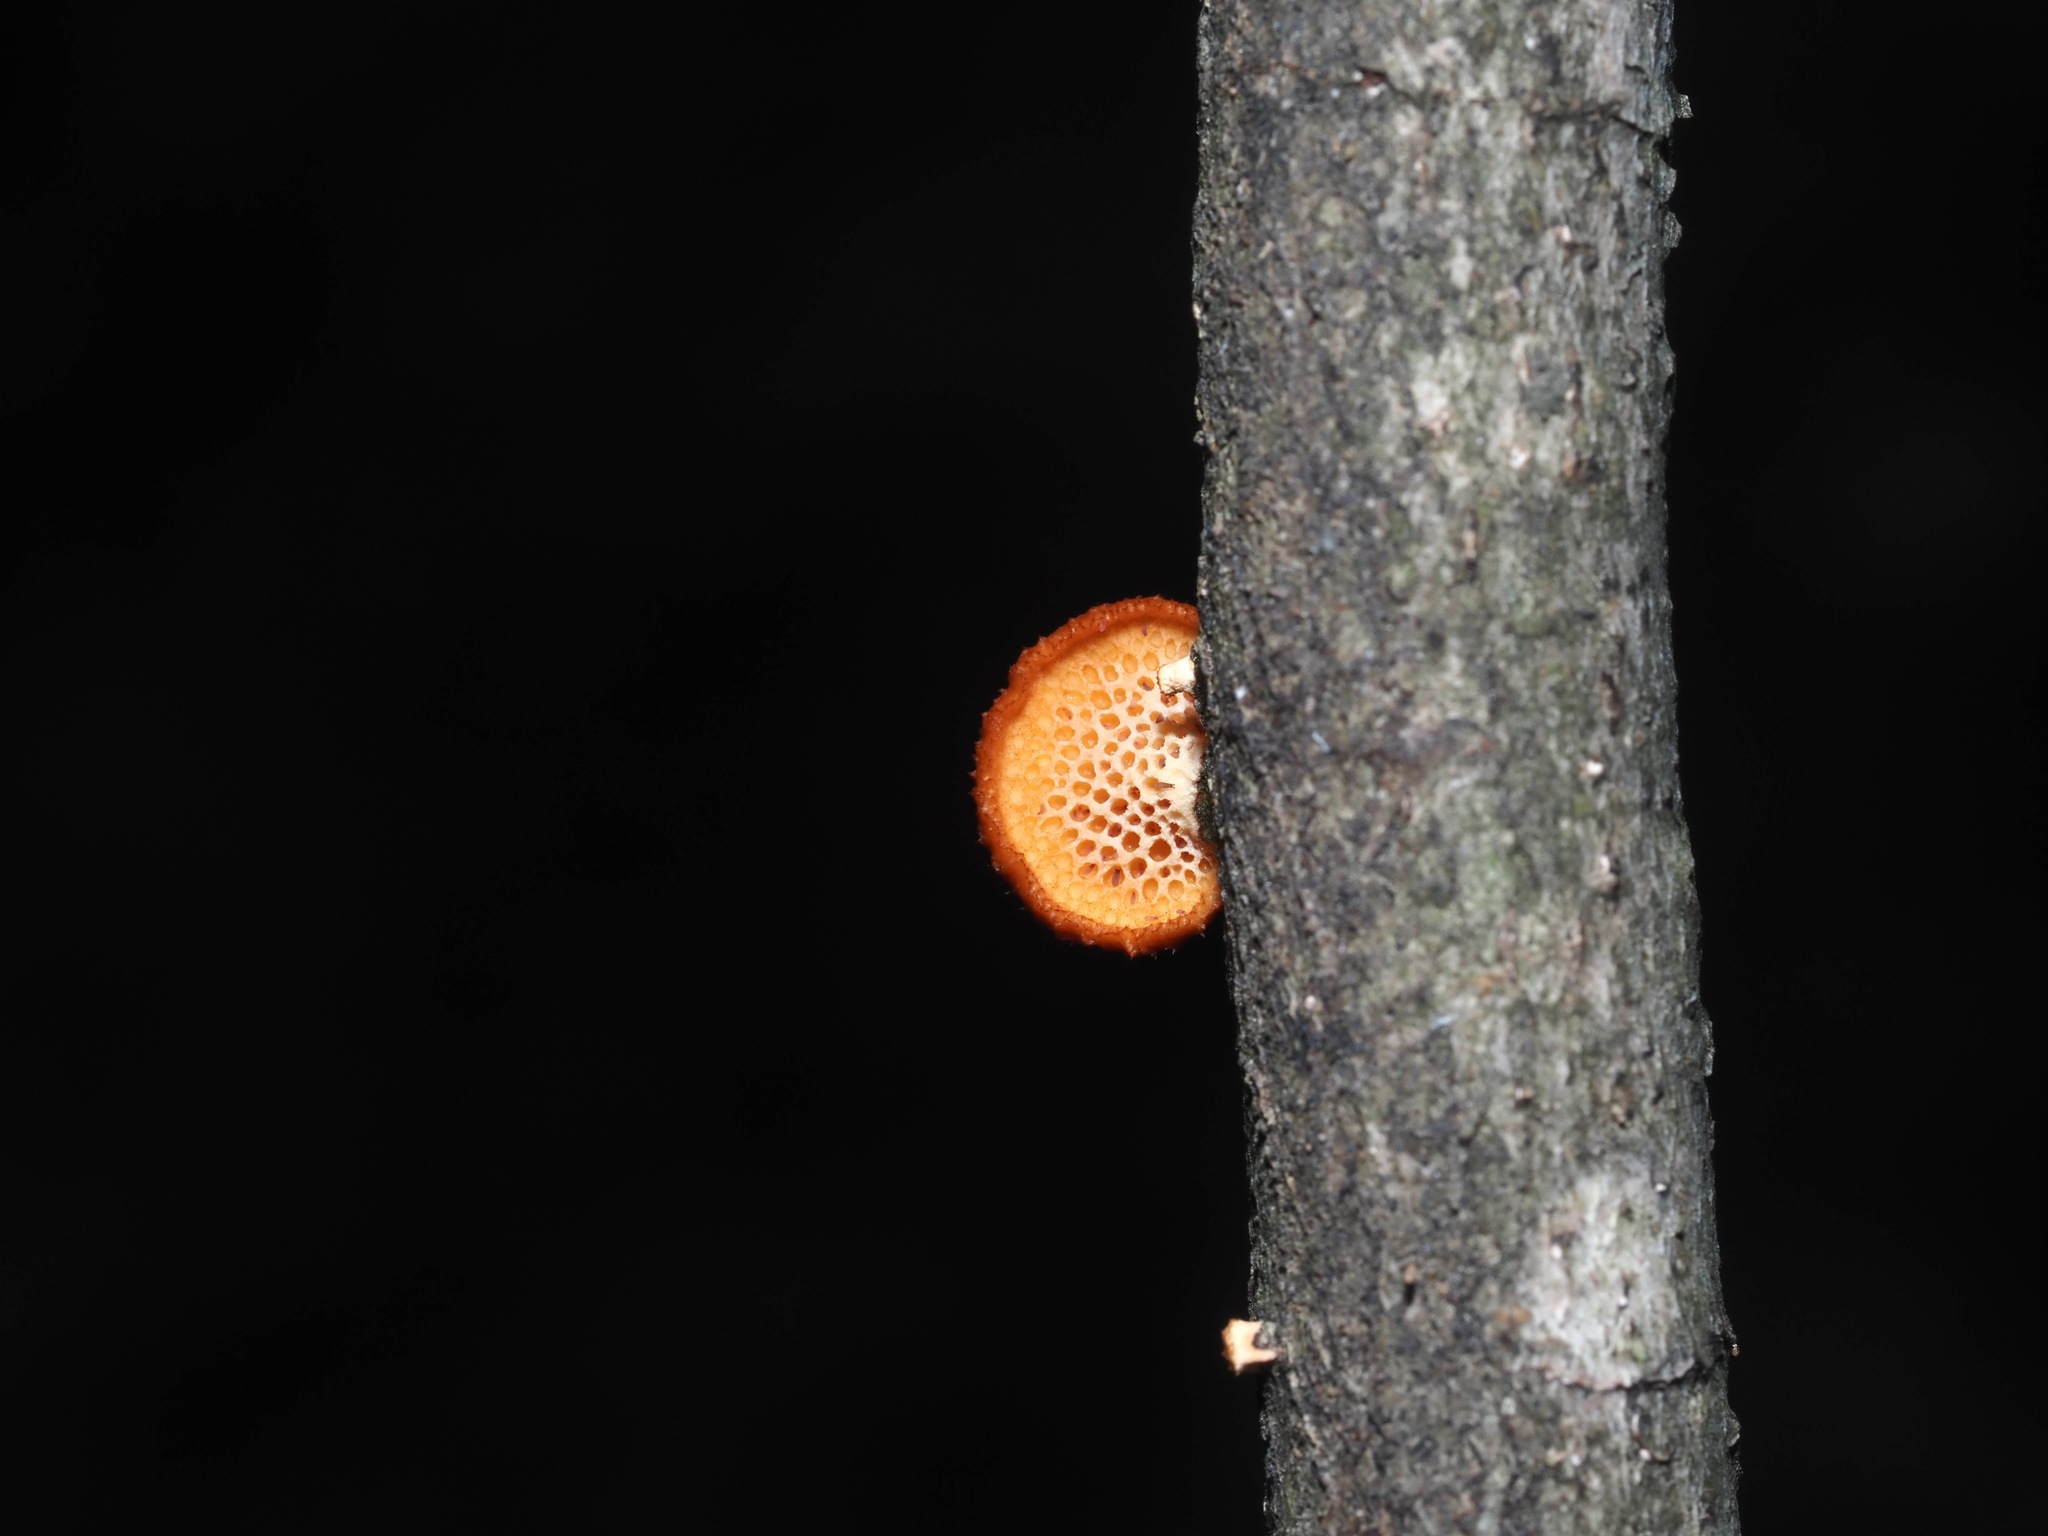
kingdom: Fungi
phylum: Basidiomycota
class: Agaricomycetes
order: Polyporales
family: Polyporaceae
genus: Neofavolus
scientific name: Neofavolus alveolaris
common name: Hexagonal-pored polypore
